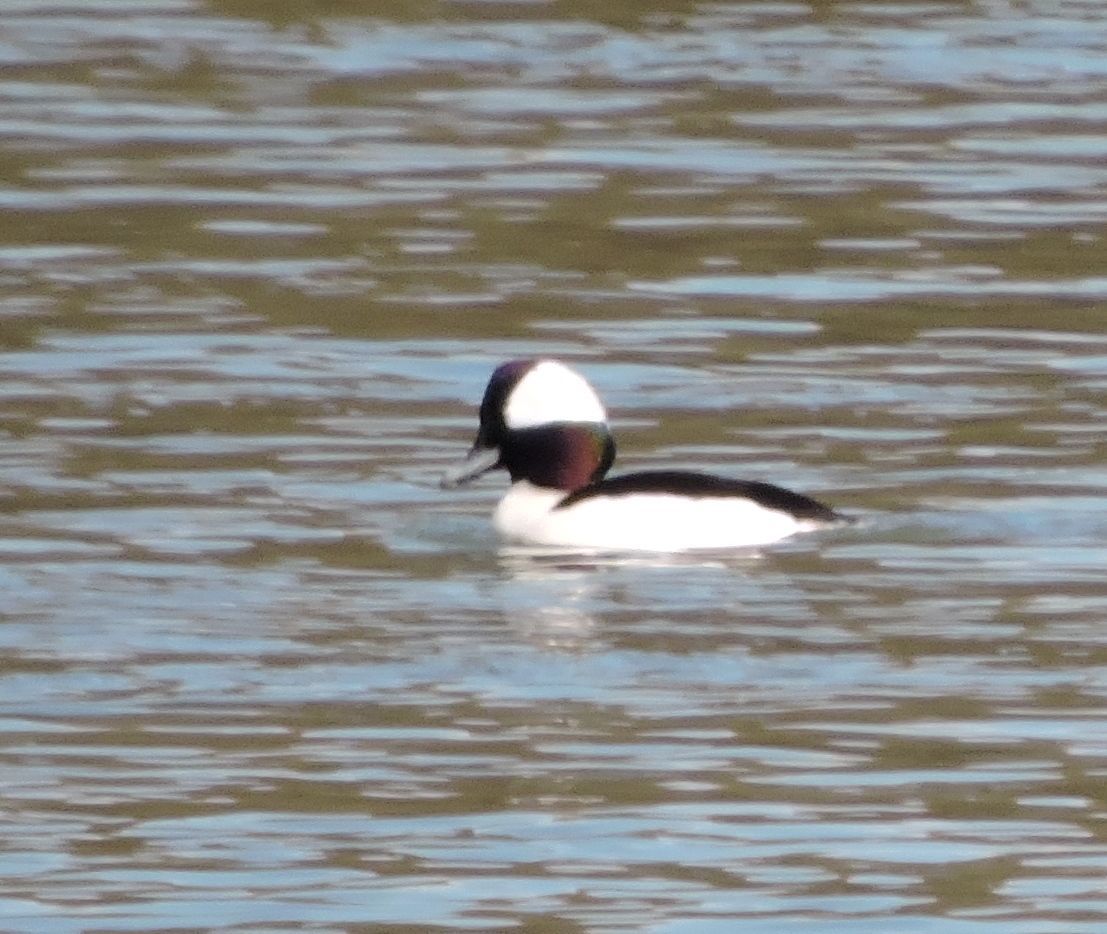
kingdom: Animalia
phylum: Chordata
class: Aves
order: Anseriformes
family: Anatidae
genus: Bucephala
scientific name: Bucephala albeola
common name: Bufflehead
